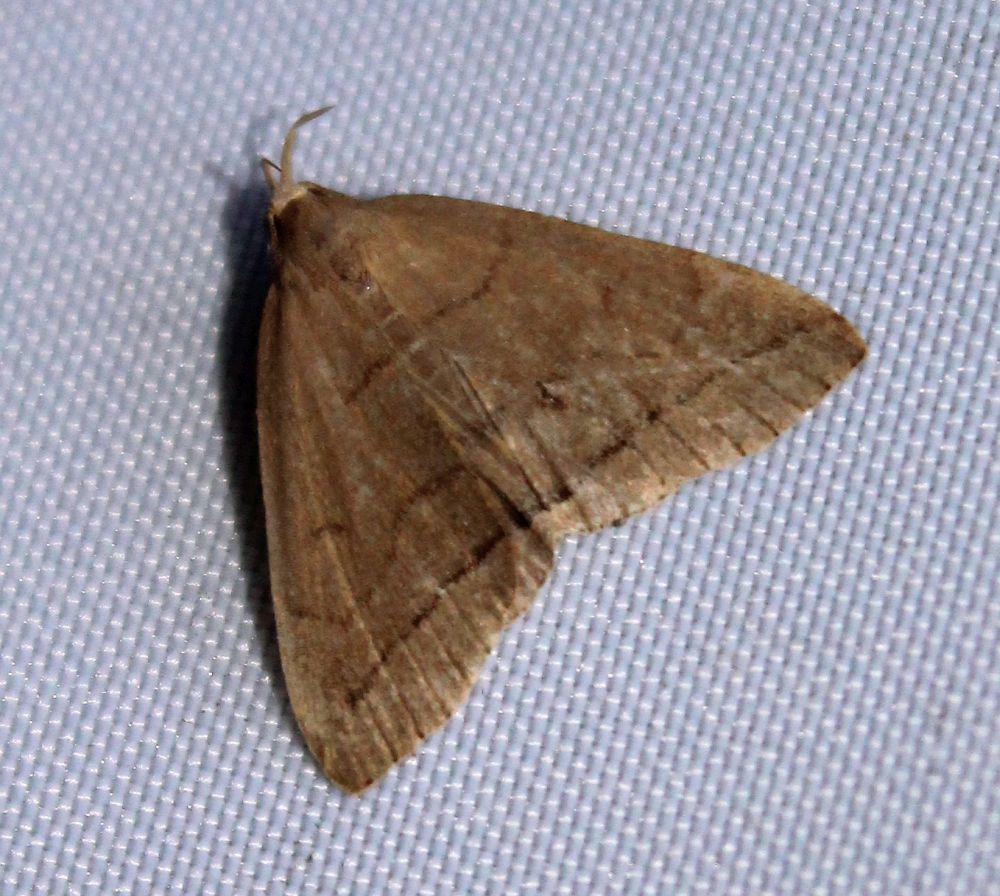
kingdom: Animalia
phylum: Arthropoda
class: Insecta
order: Lepidoptera
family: Erebidae
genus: Herminia
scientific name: Herminia tarsipennalis
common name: Fan-foot
